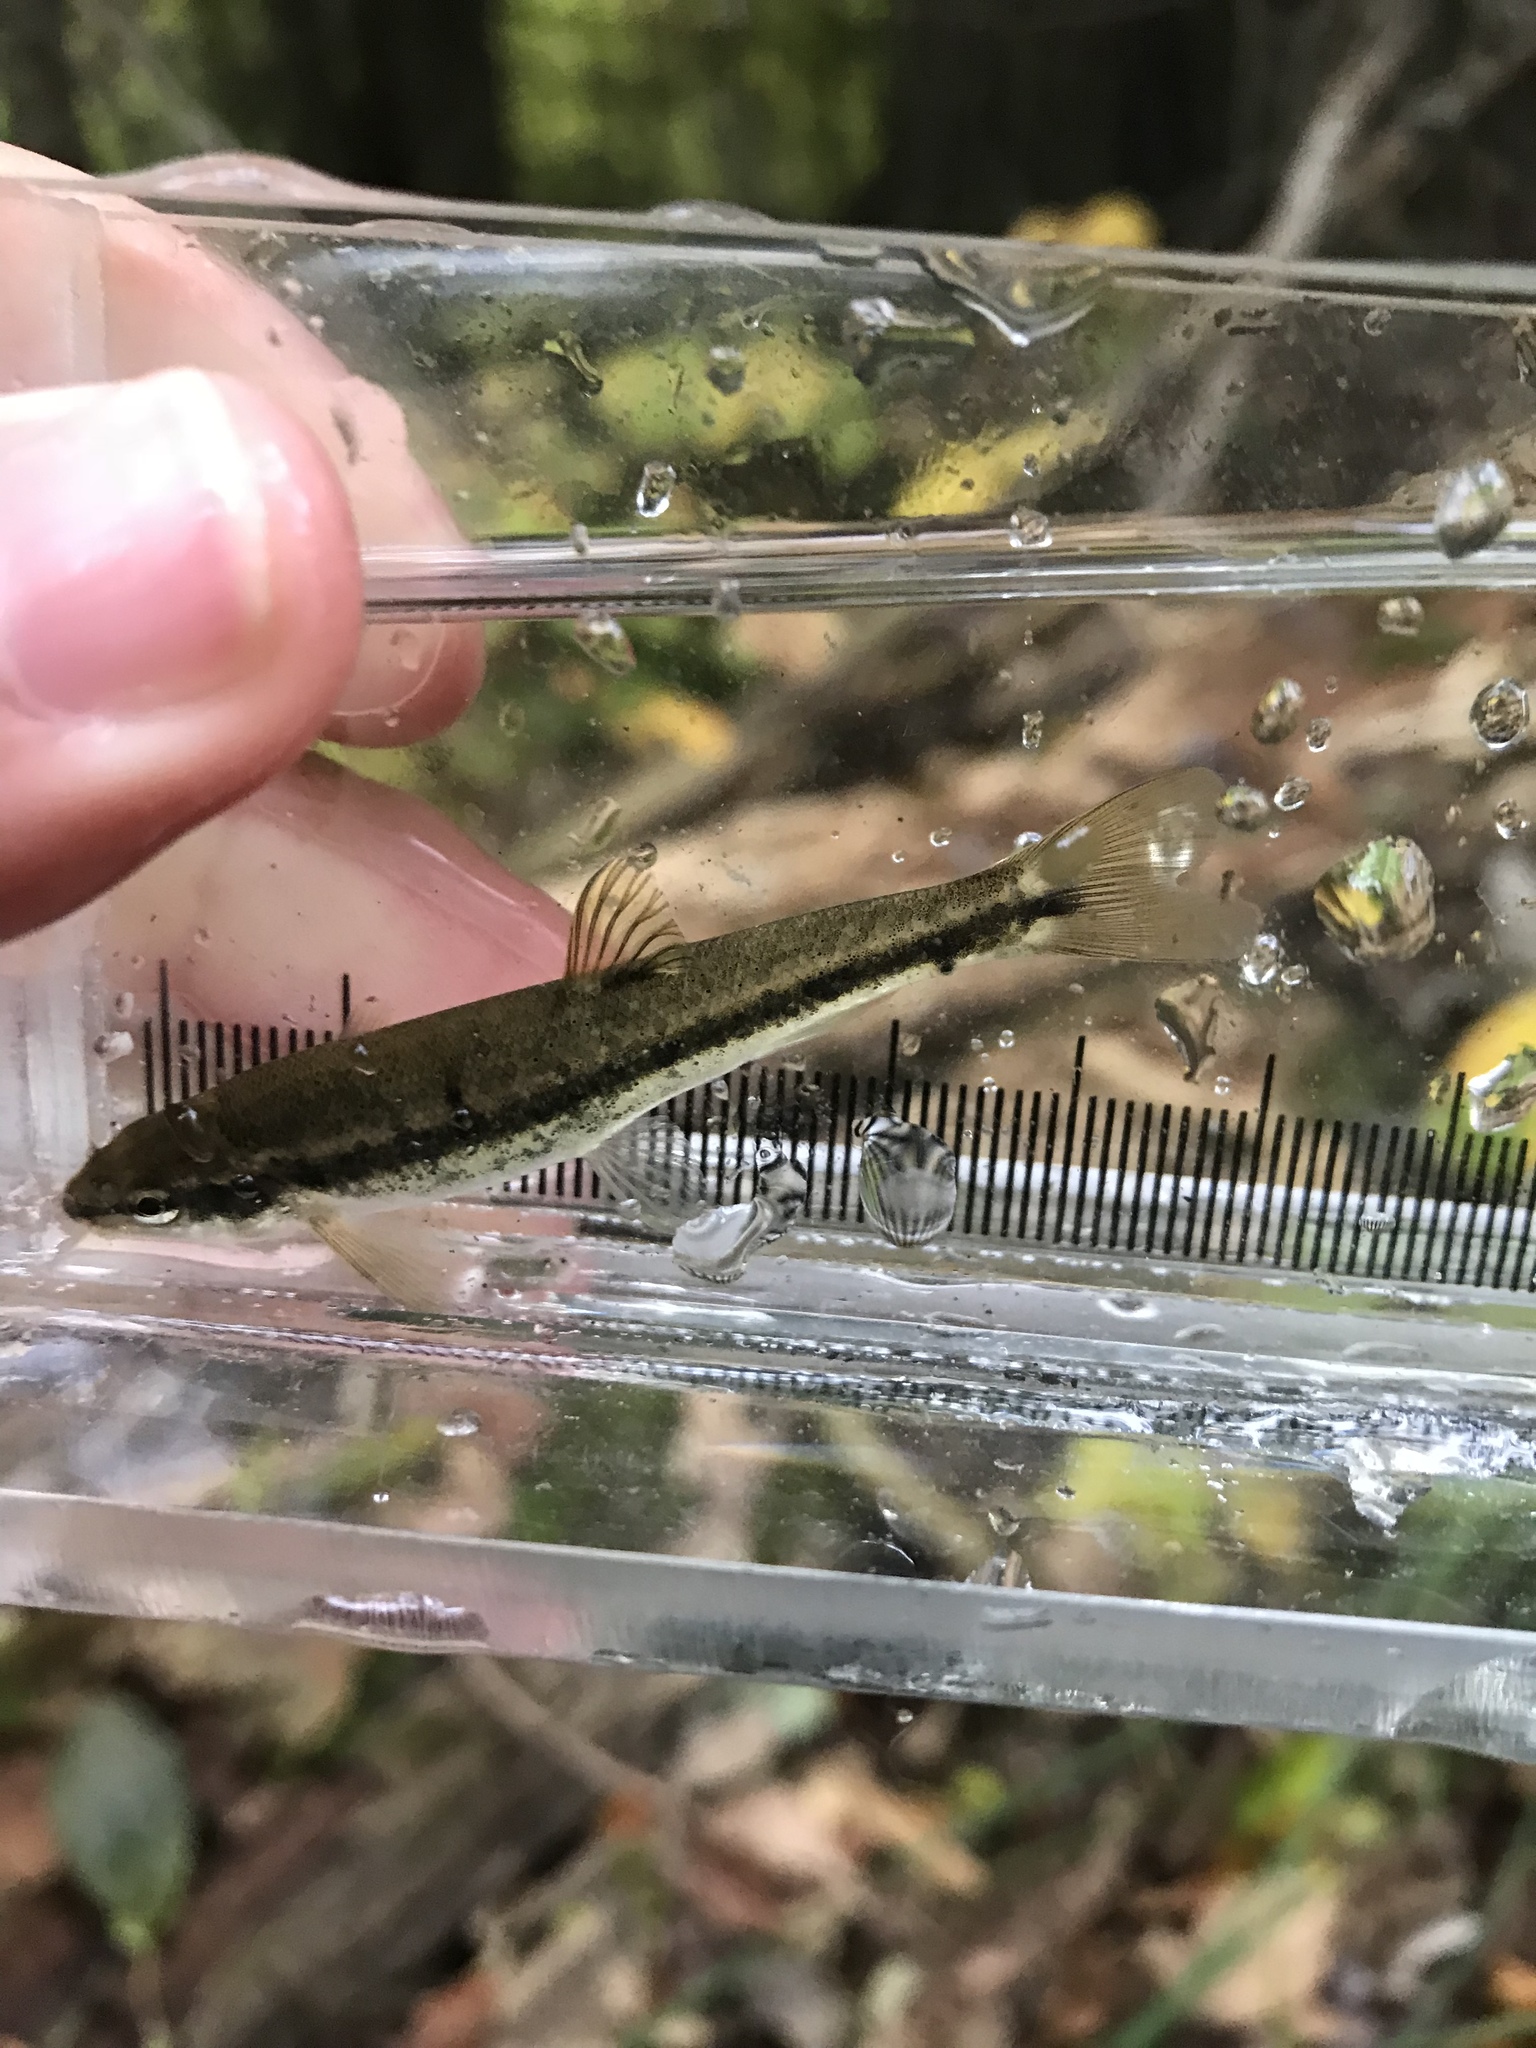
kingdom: Animalia
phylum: Chordata
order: Cypriniformes
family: Cyprinidae
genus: Rhinichthys
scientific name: Rhinichthys obtusus
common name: Western blacknose dace
